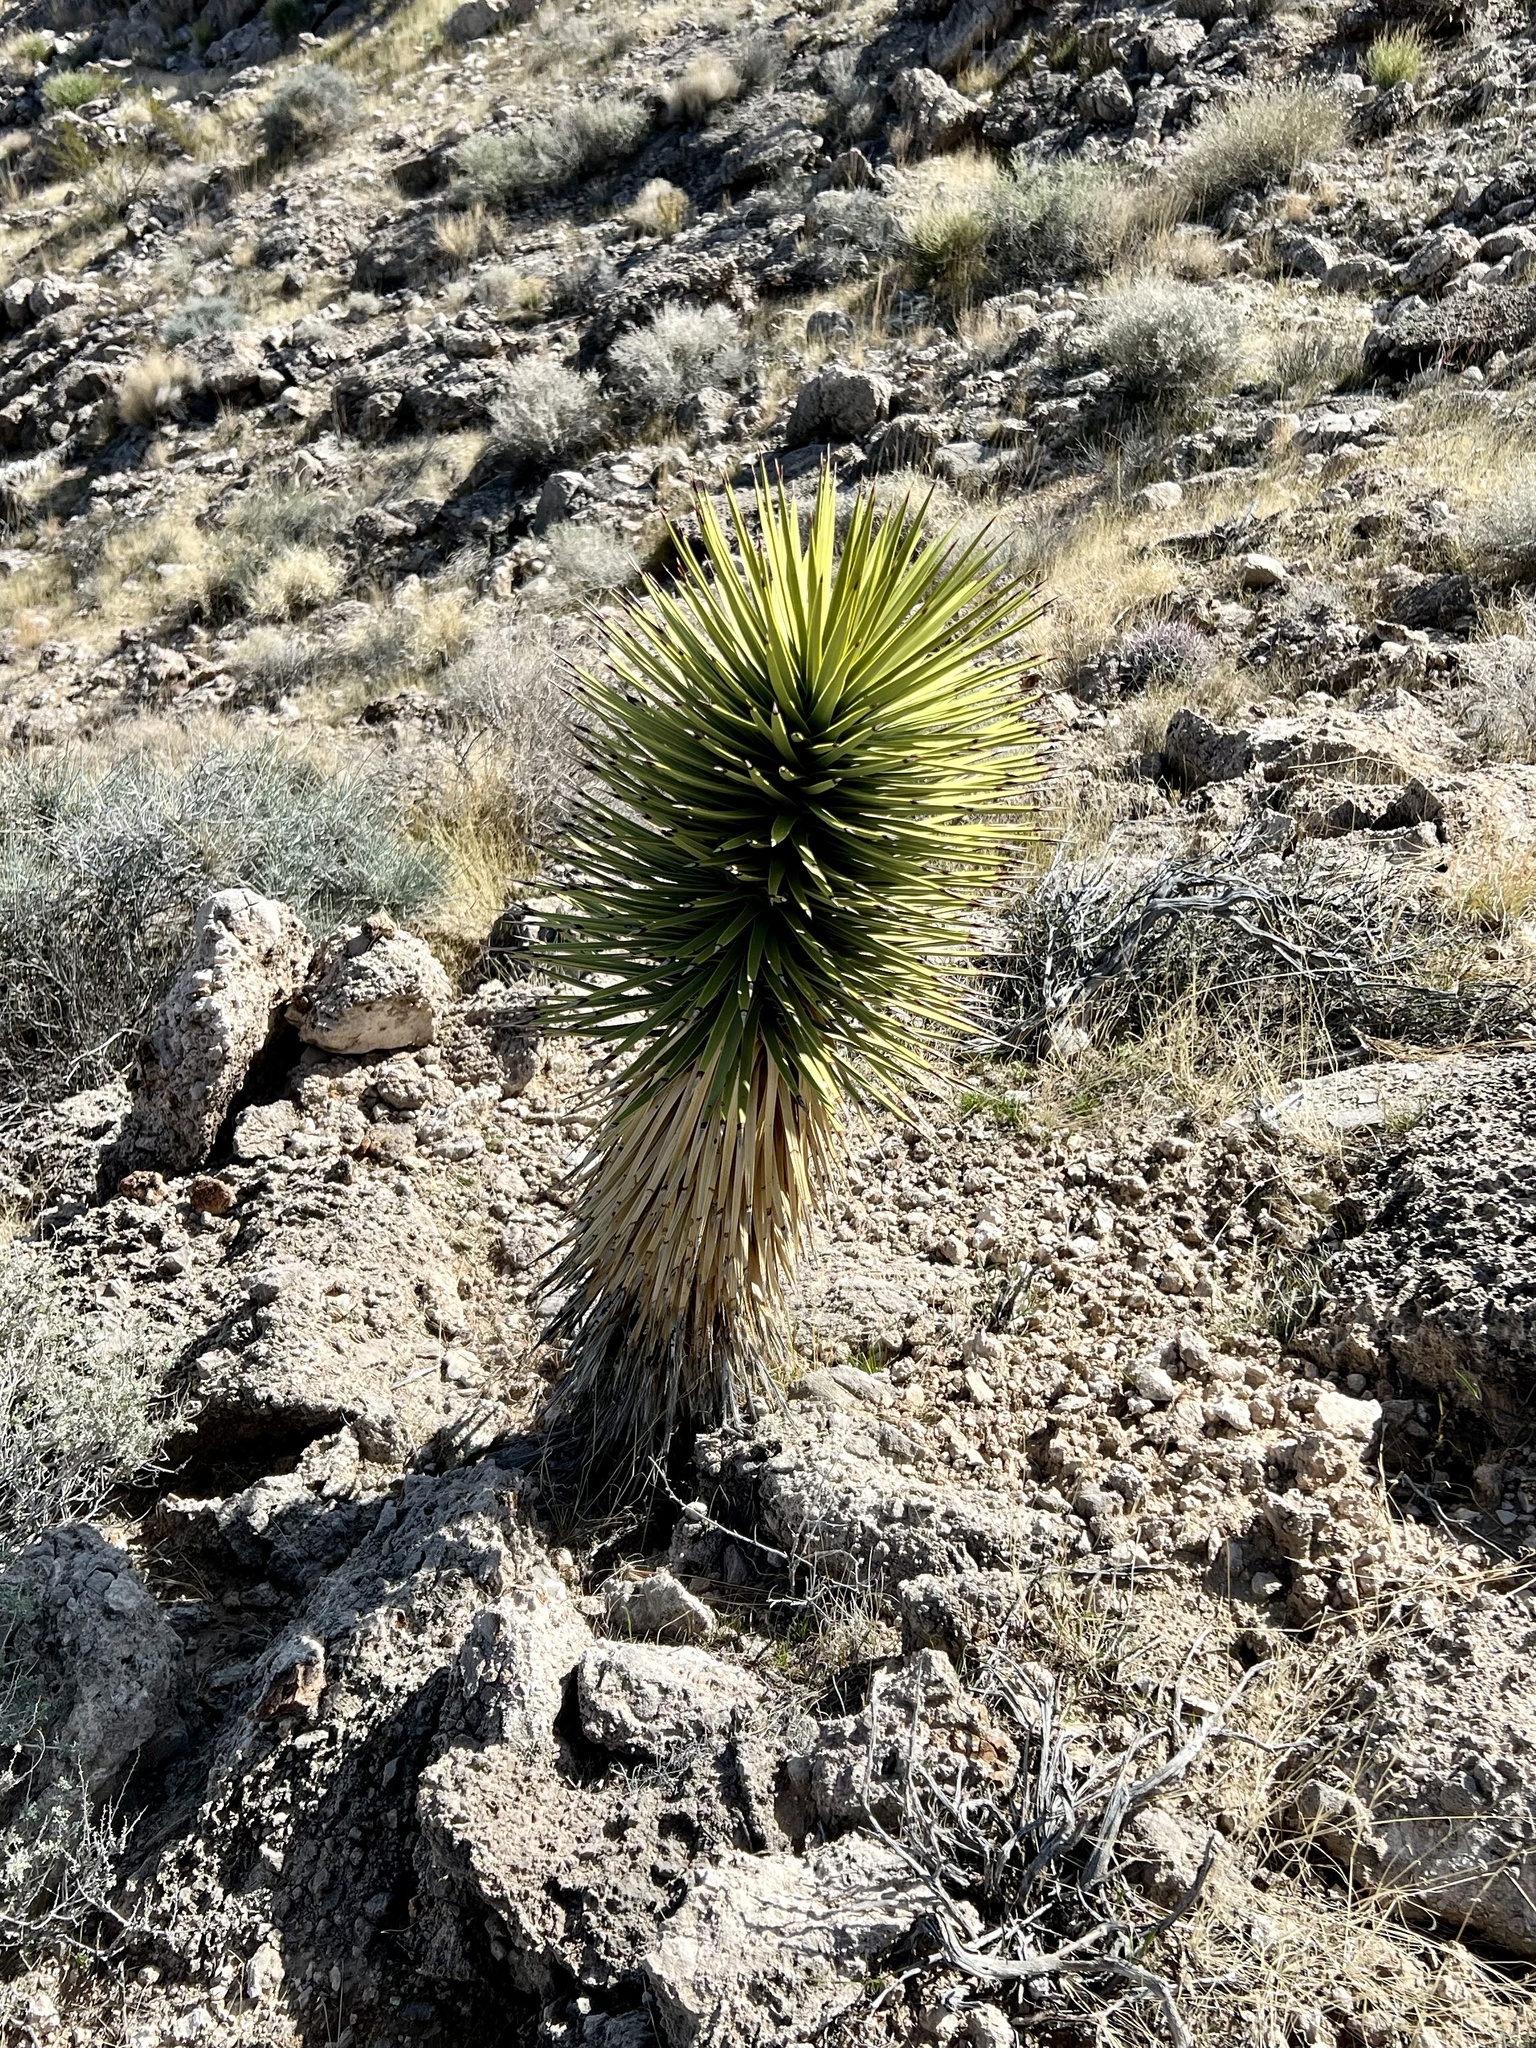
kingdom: Plantae
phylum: Tracheophyta
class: Liliopsida
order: Asparagales
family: Asparagaceae
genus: Yucca
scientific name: Yucca brevifolia
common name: Joshua tree
